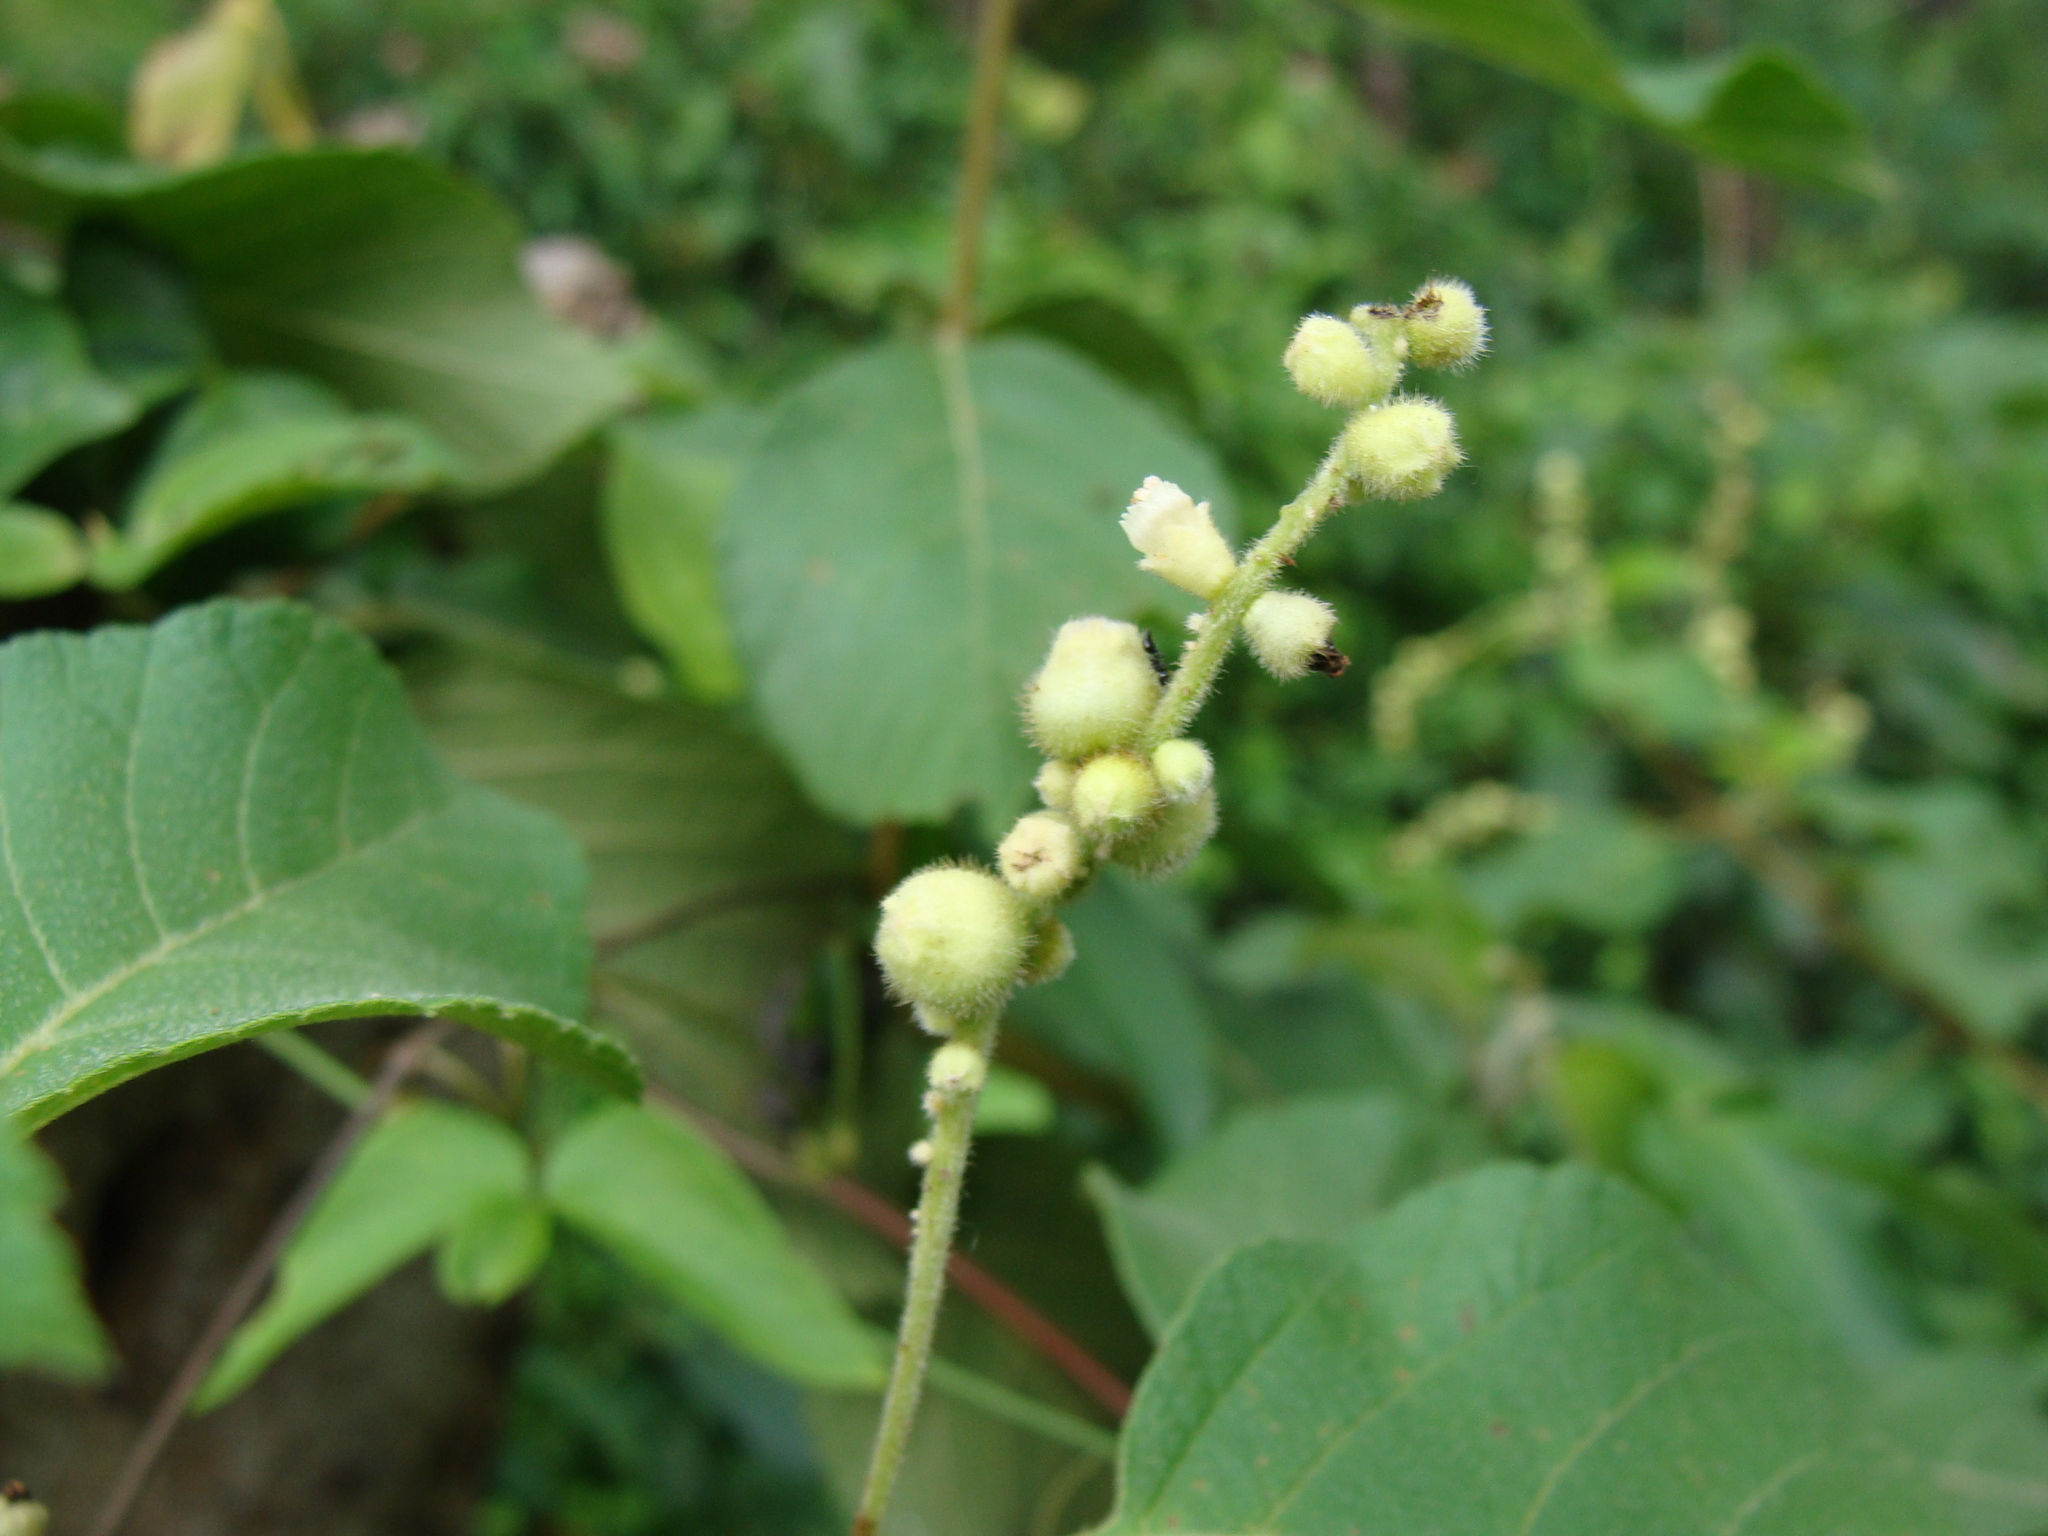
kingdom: Plantae
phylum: Tracheophyta
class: Magnoliopsida
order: Boraginales
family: Cordiaceae
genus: Varronia
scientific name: Varronia curassavica
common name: Black sage
